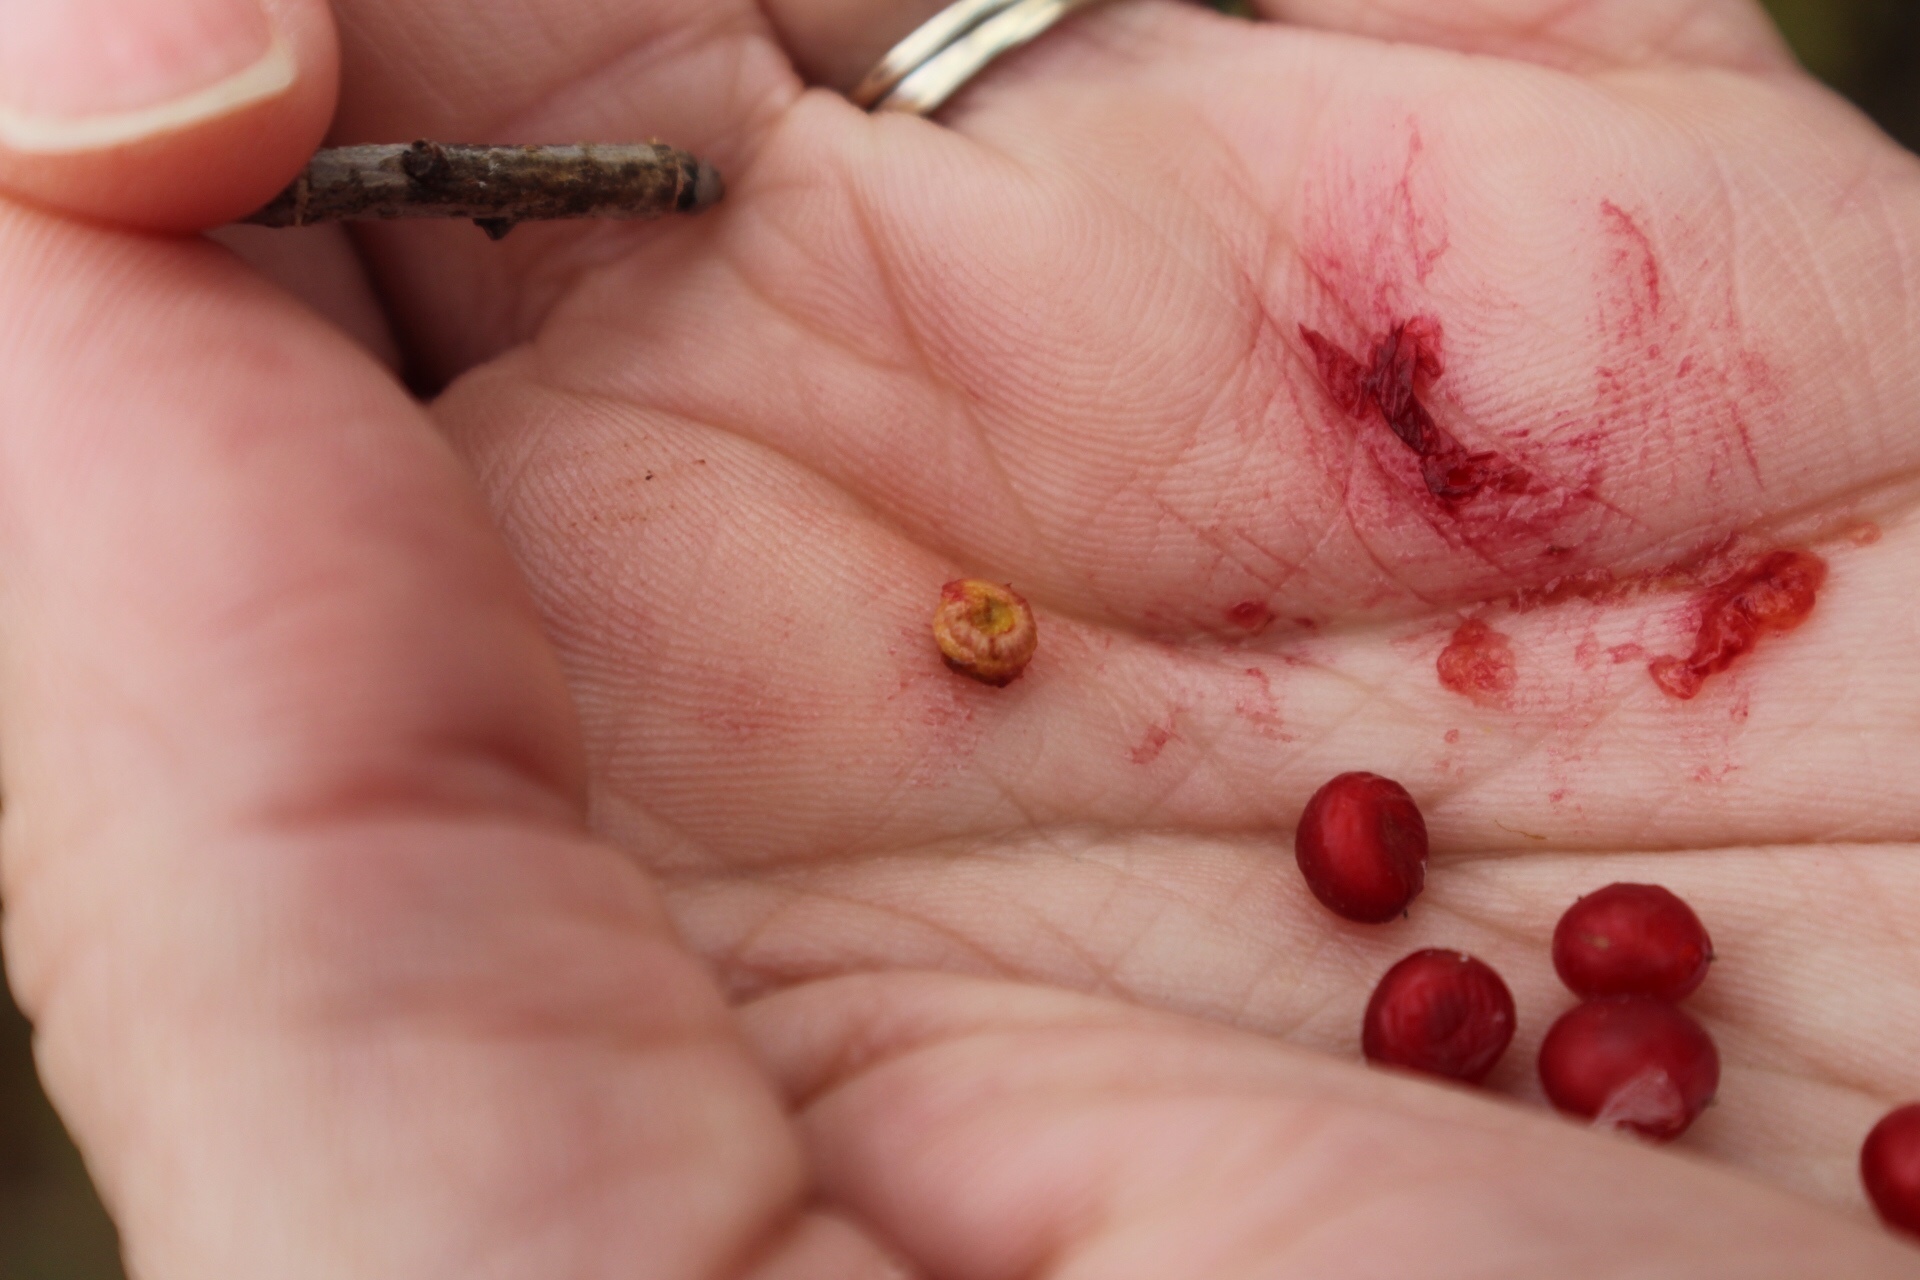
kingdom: Plantae
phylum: Tracheophyta
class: Magnoliopsida
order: Ranunculales
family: Menispermaceae
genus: Cocculus
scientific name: Cocculus carolinus
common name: Carolina moonseed
